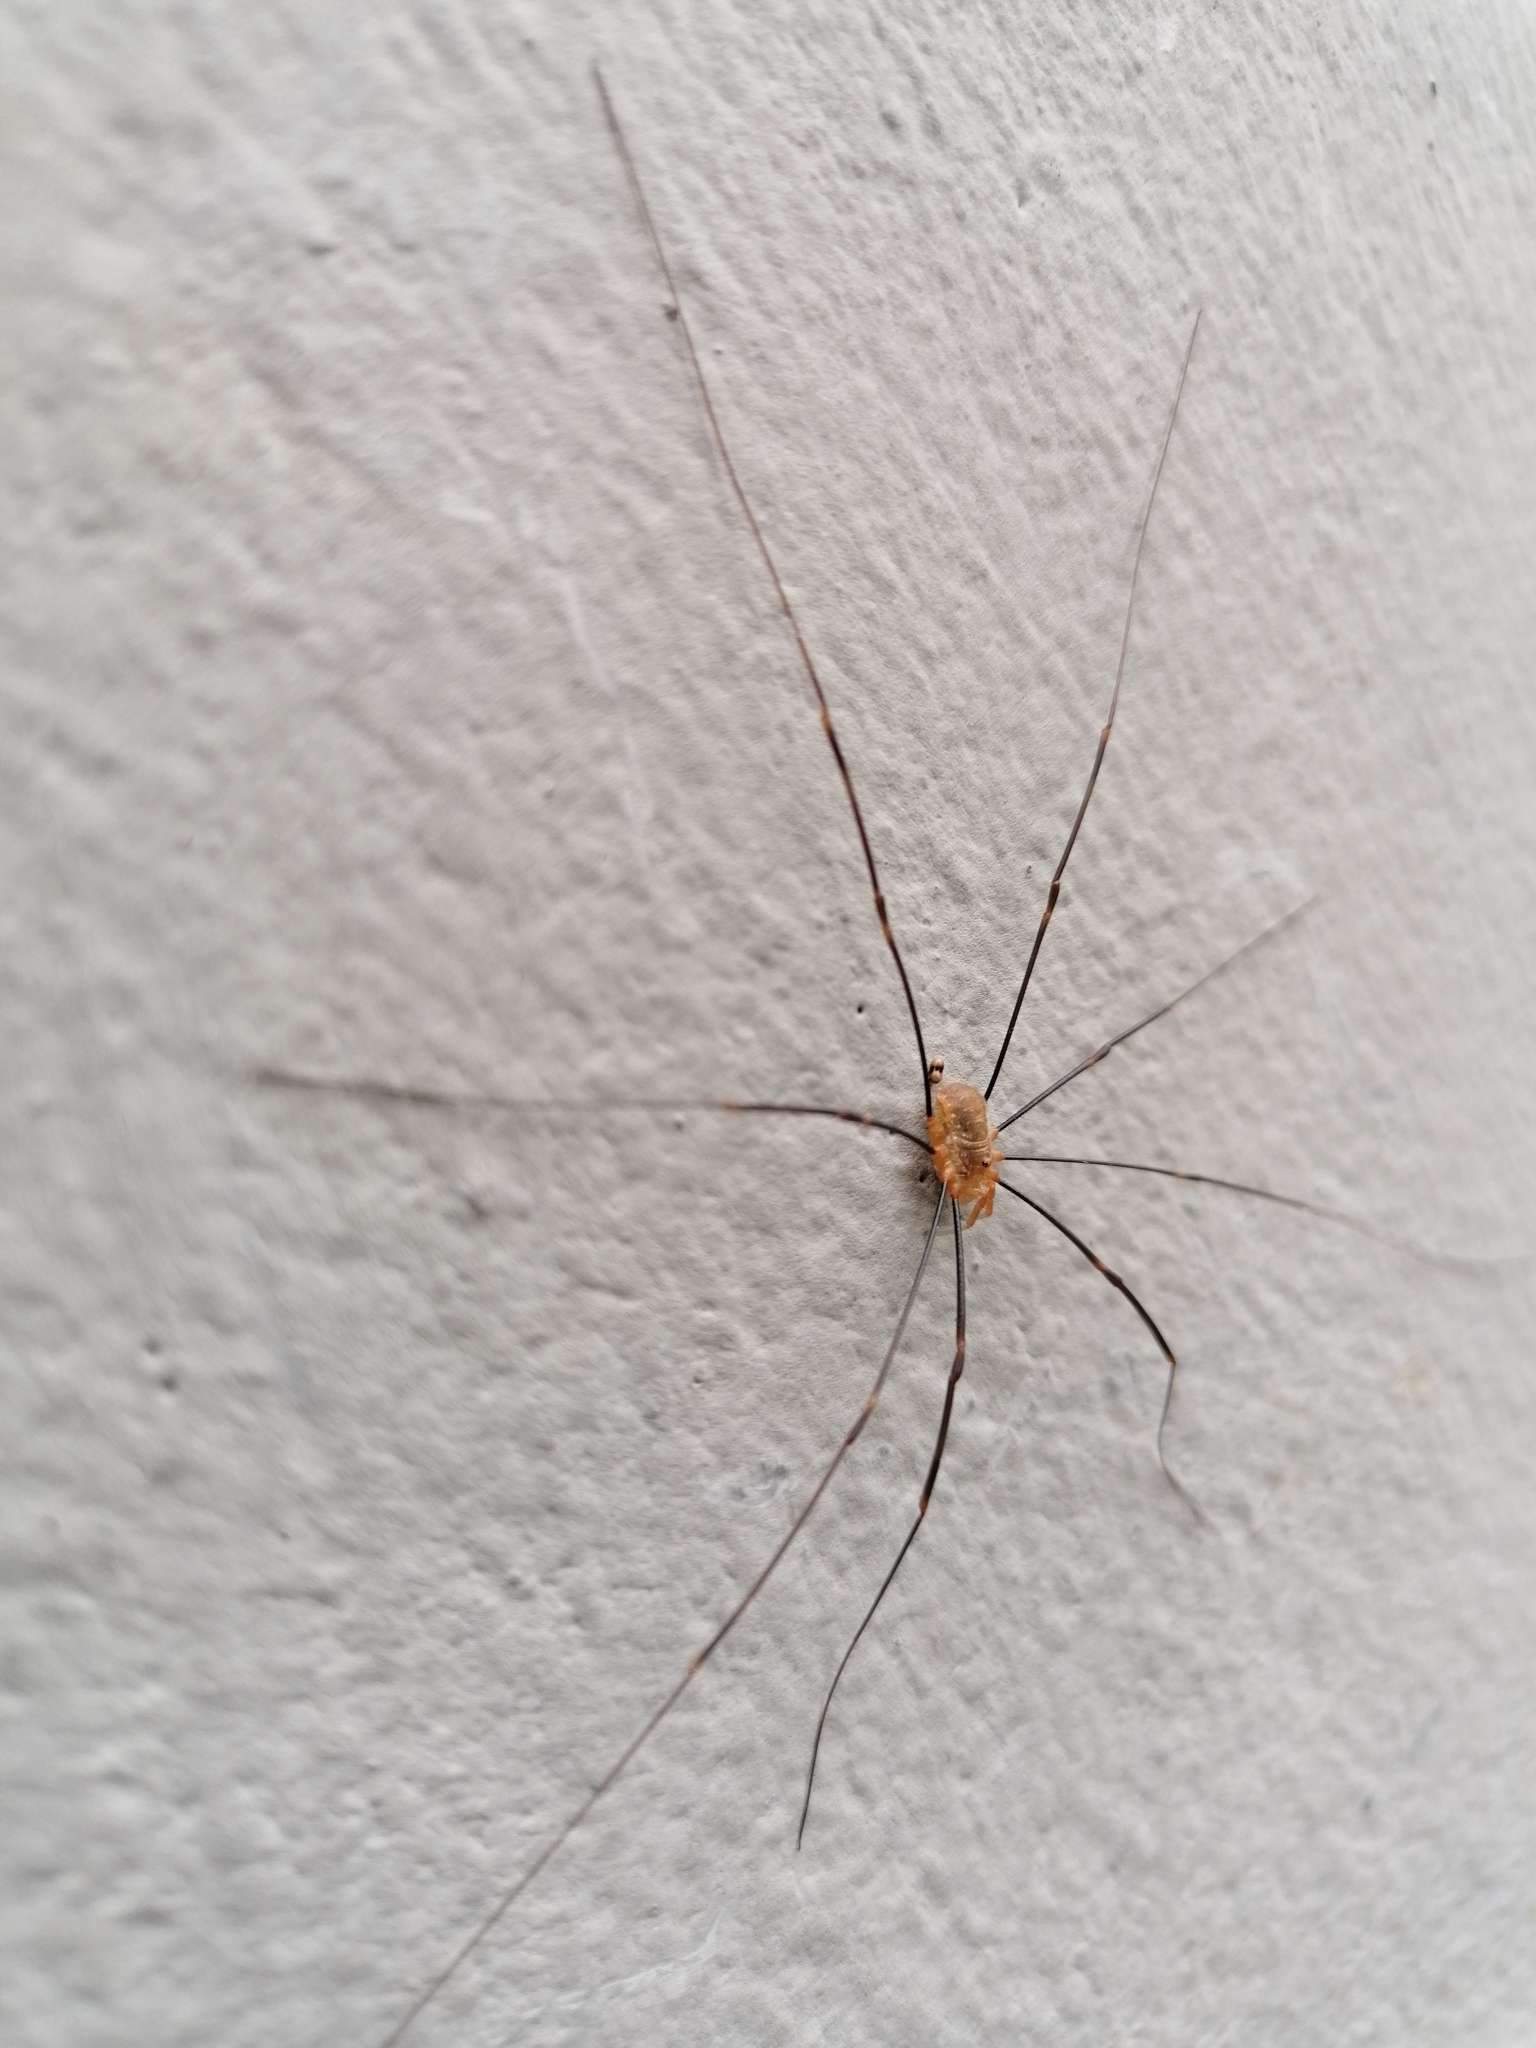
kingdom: Animalia
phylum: Arthropoda
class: Arachnida
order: Opiliones
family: Phalangiidae
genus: Opilio
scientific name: Opilio canestrinii
